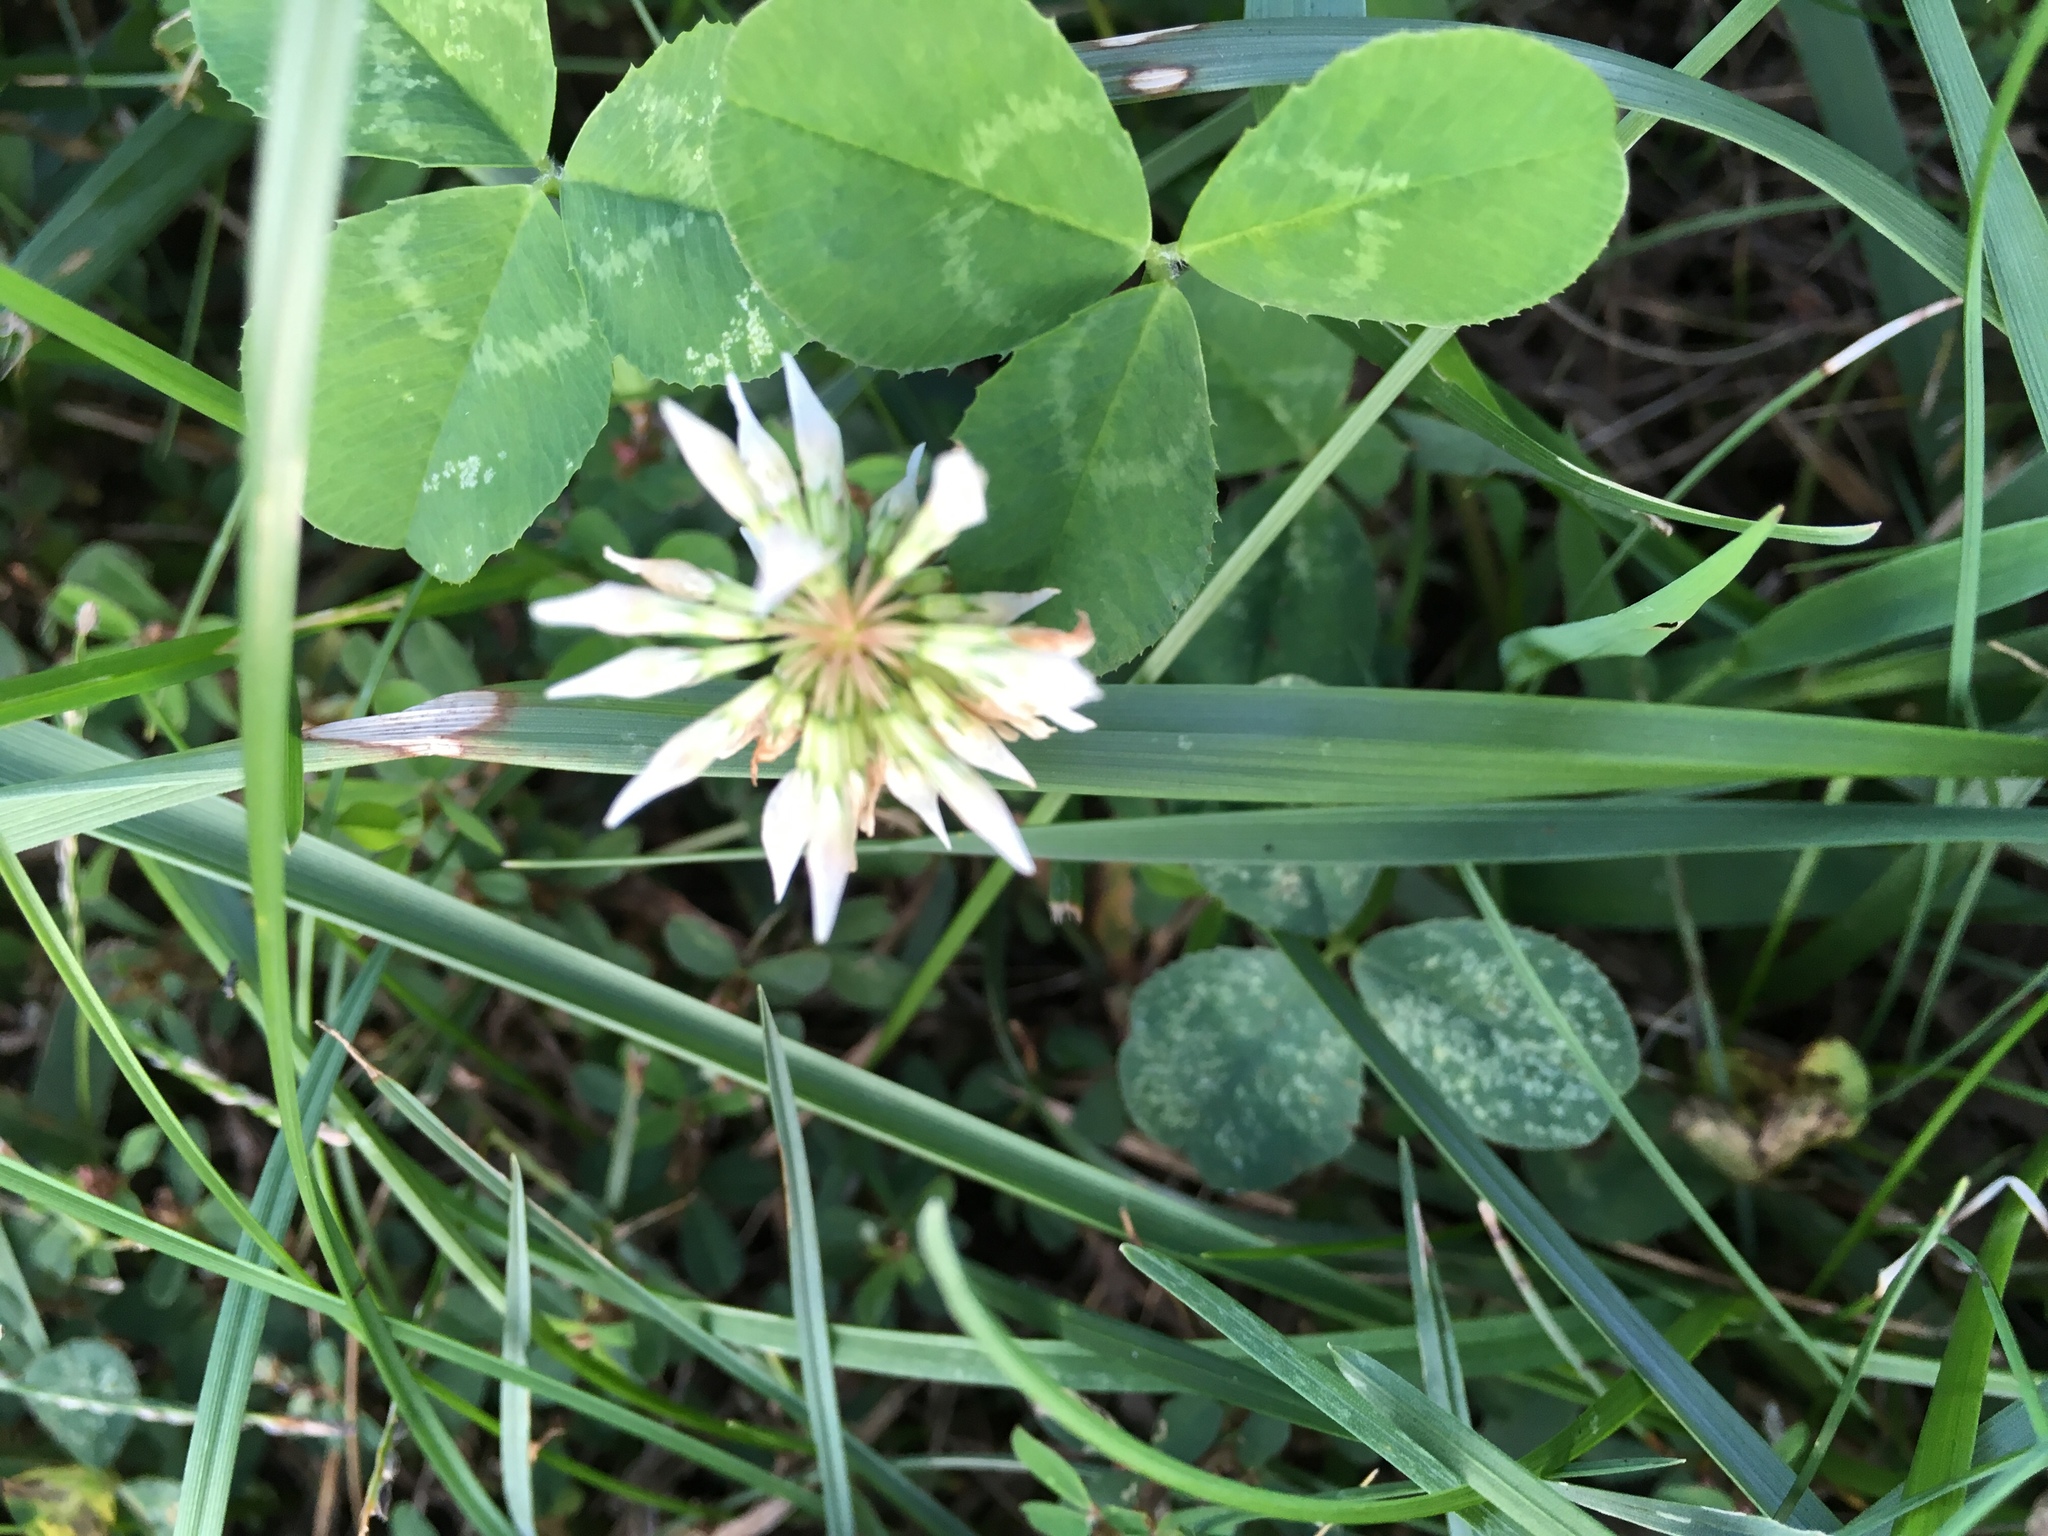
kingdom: Plantae
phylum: Tracheophyta
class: Magnoliopsida
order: Fabales
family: Fabaceae
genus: Trifolium
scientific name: Trifolium repens
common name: White clover
